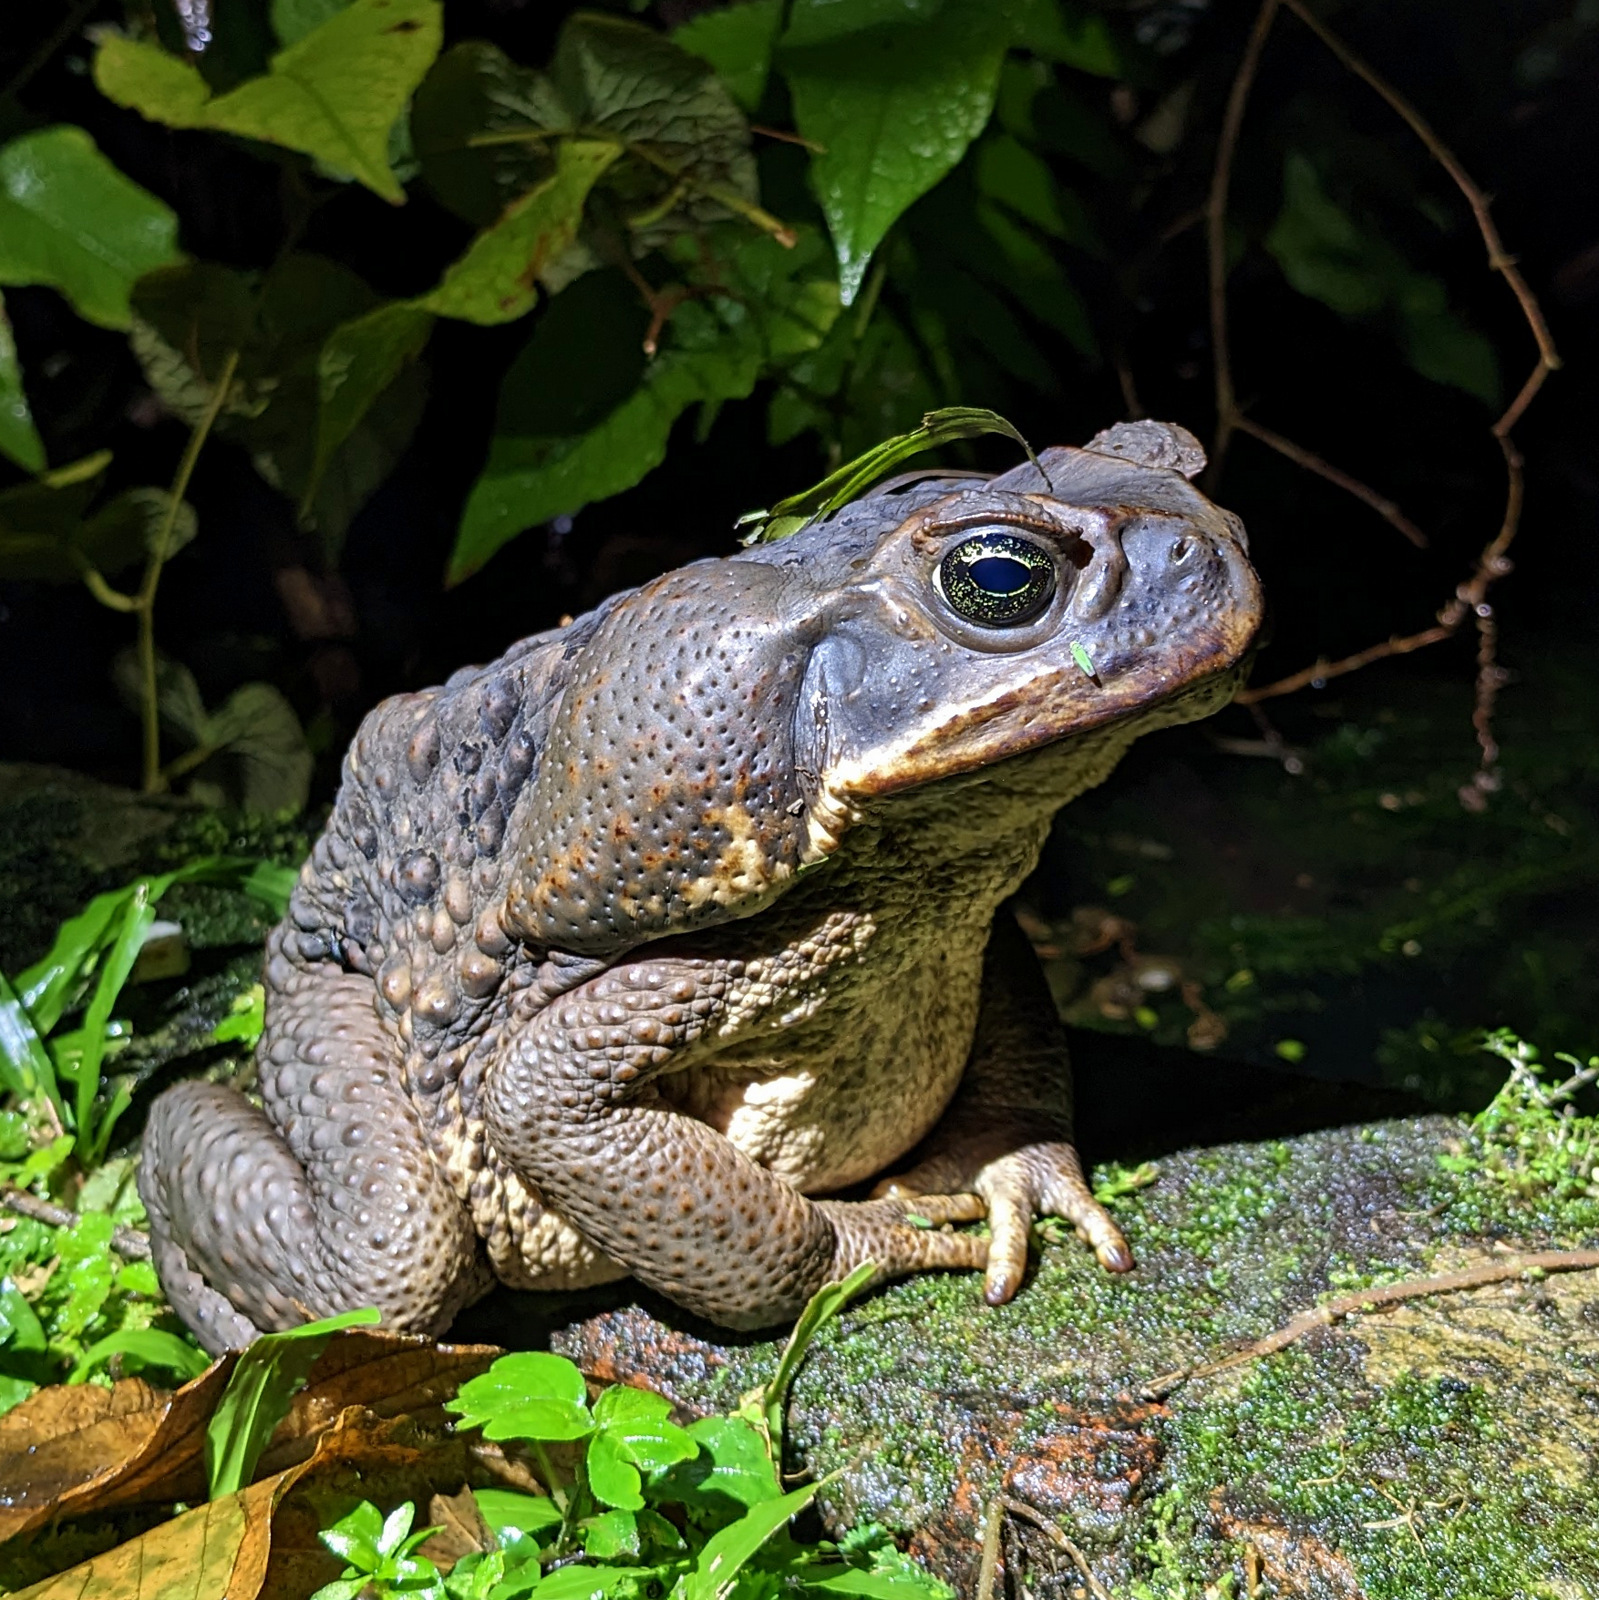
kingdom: Animalia
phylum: Chordata
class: Amphibia
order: Anura
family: Bufonidae
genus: Rhinella
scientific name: Rhinella marina
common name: Cane toad
